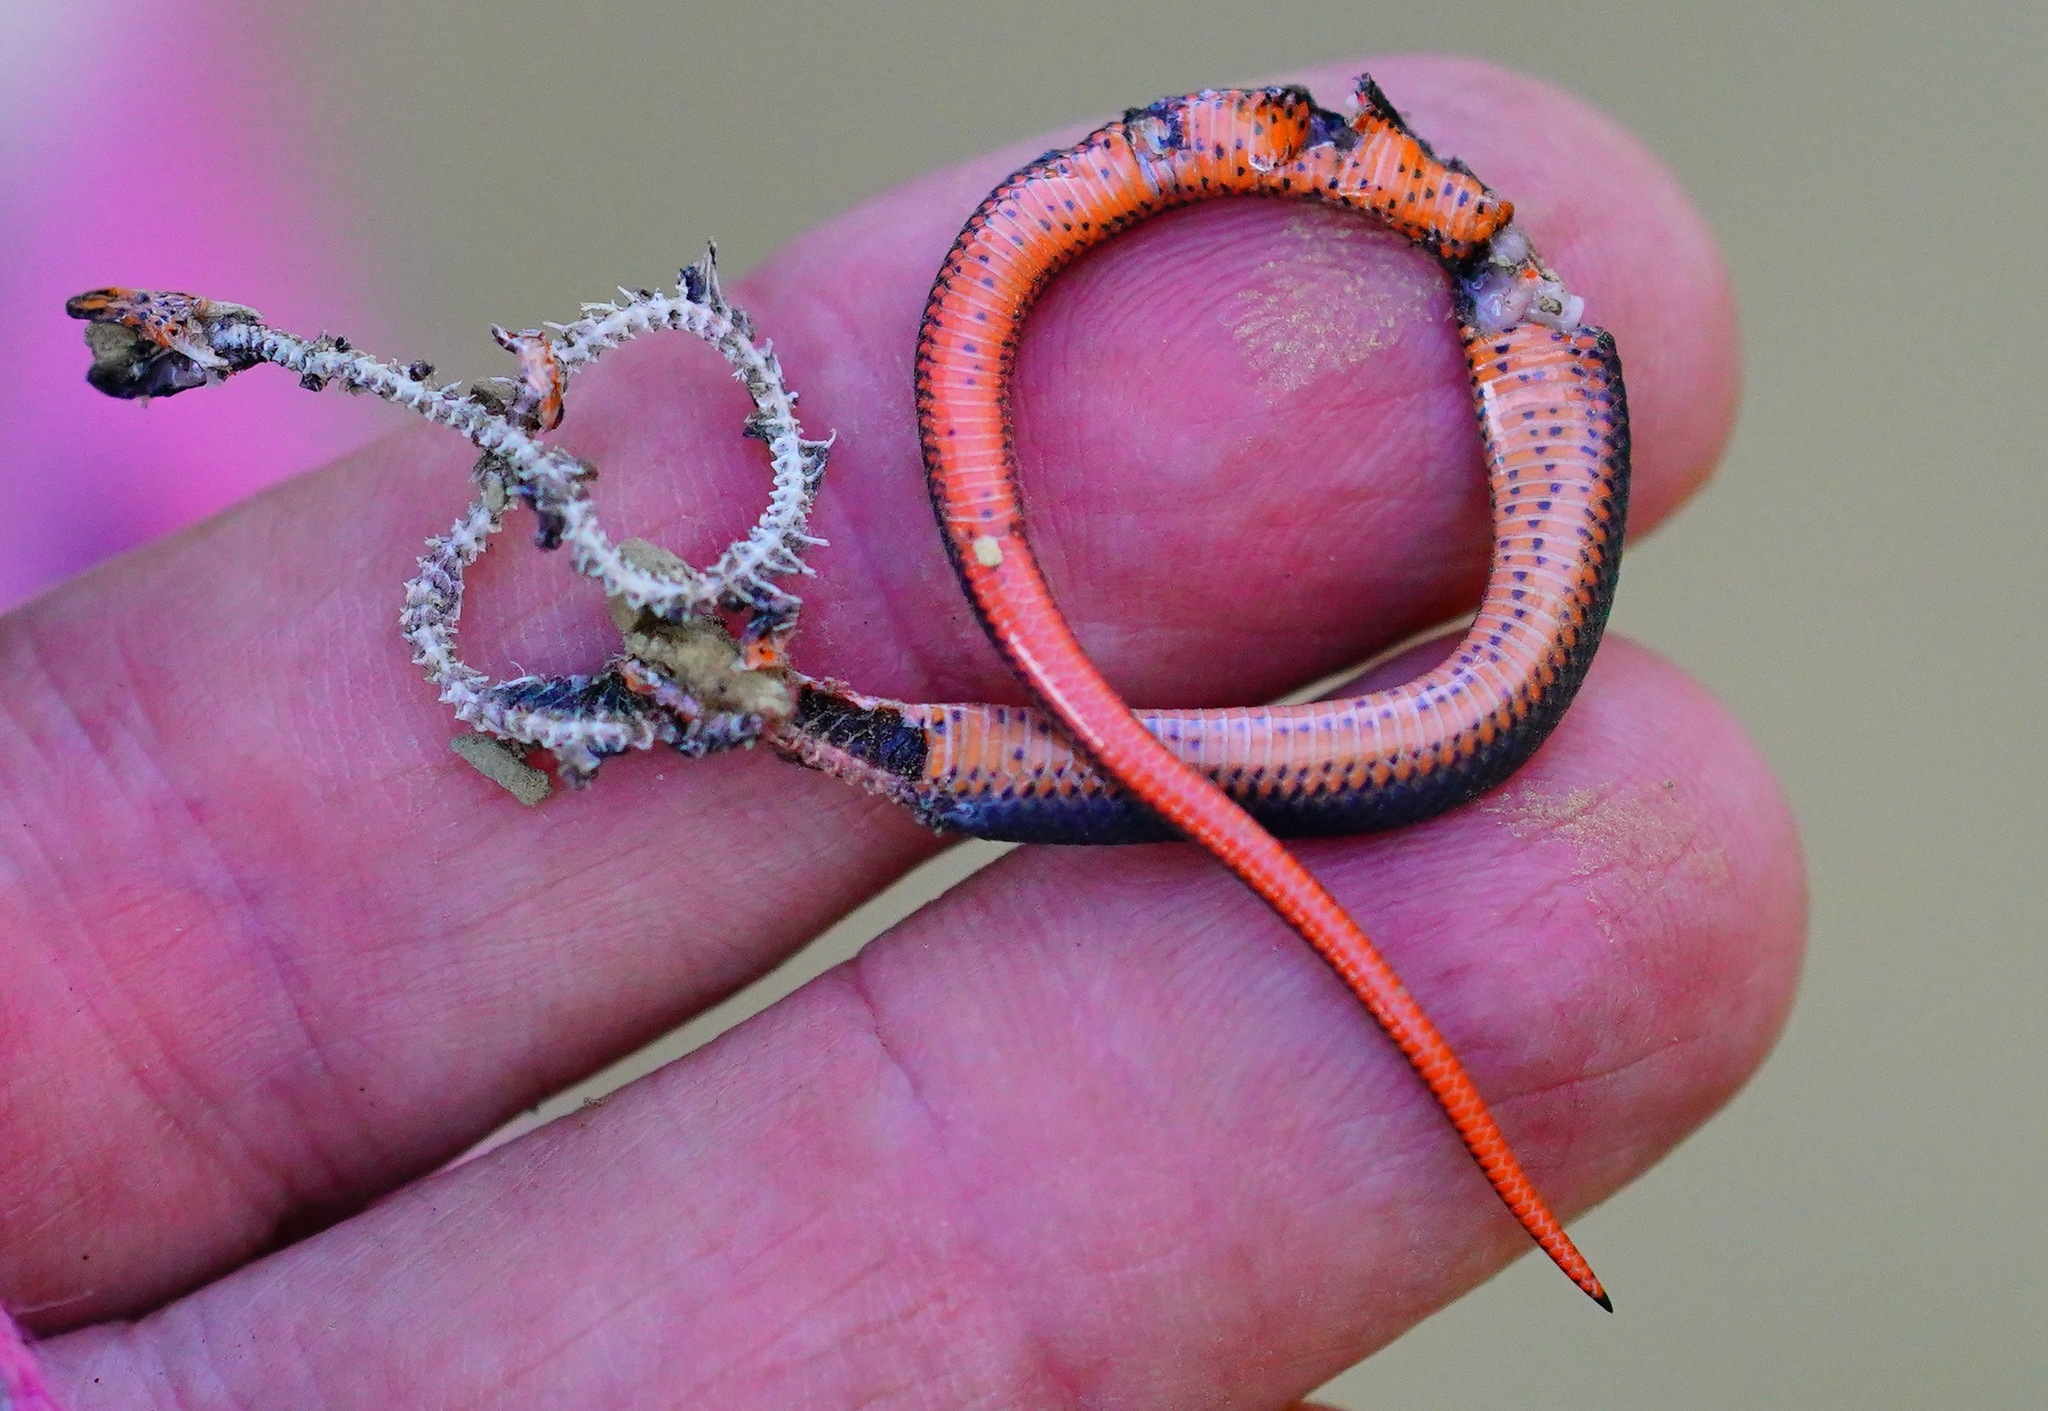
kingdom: Animalia
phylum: Chordata
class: Squamata
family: Colubridae
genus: Diadophis
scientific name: Diadophis punctatus
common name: Ringneck snake
